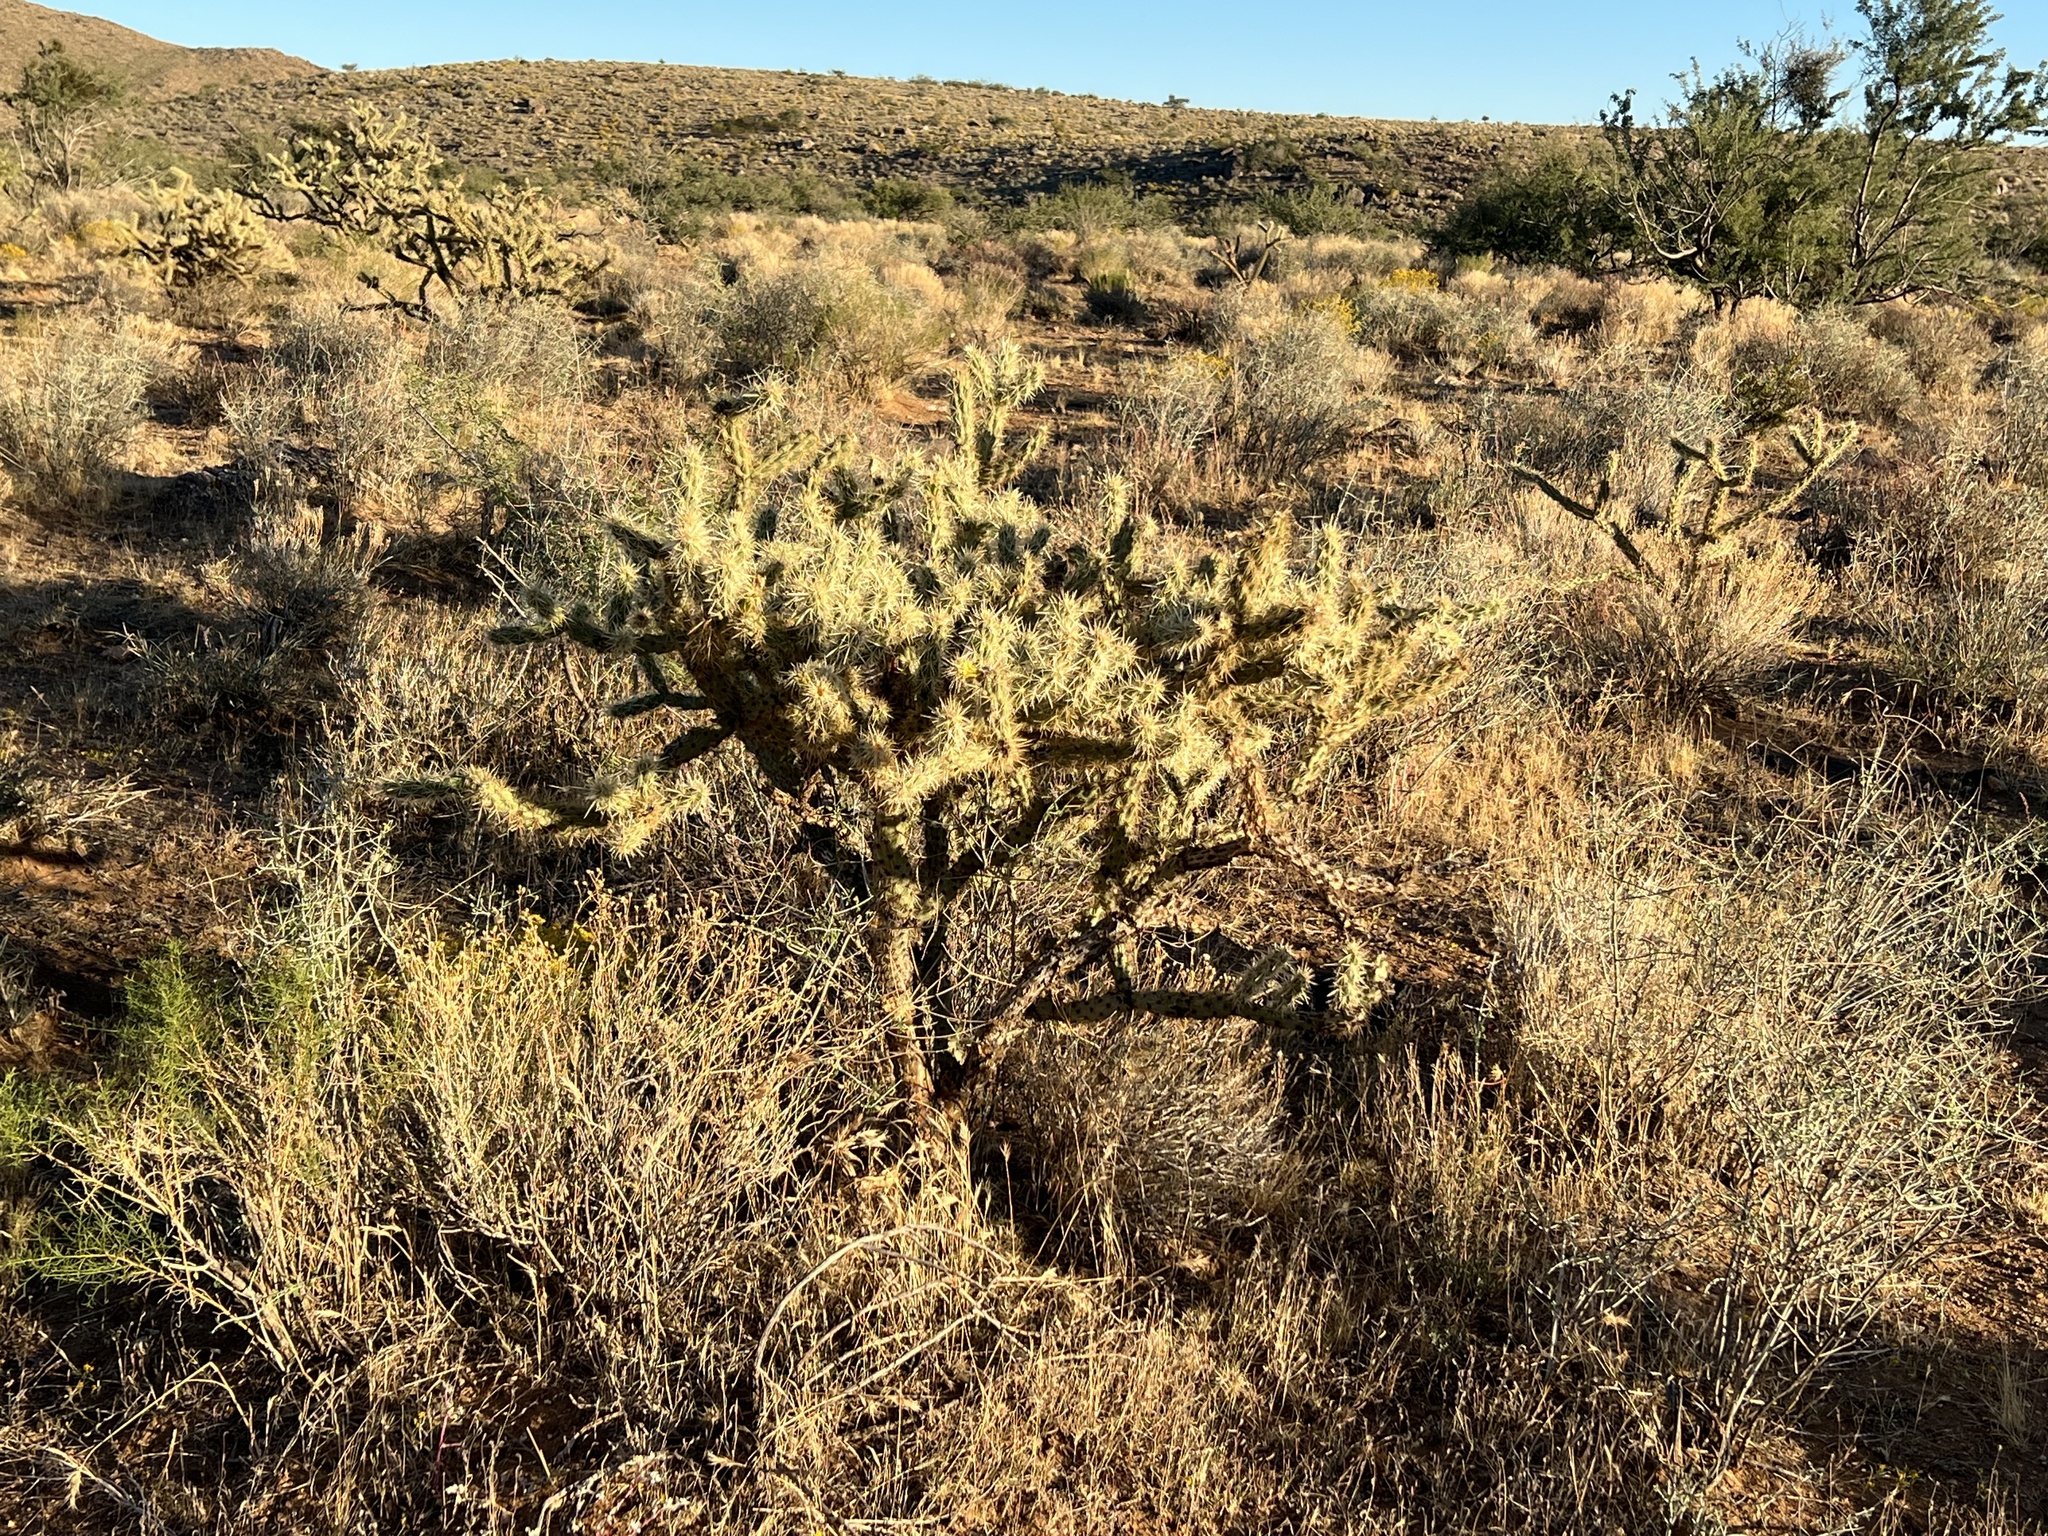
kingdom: Plantae
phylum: Tracheophyta
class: Magnoliopsida
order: Caryophyllales
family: Cactaceae
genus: Cylindropuntia
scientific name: Cylindropuntia acanthocarpa
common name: Buckhorn cholla
